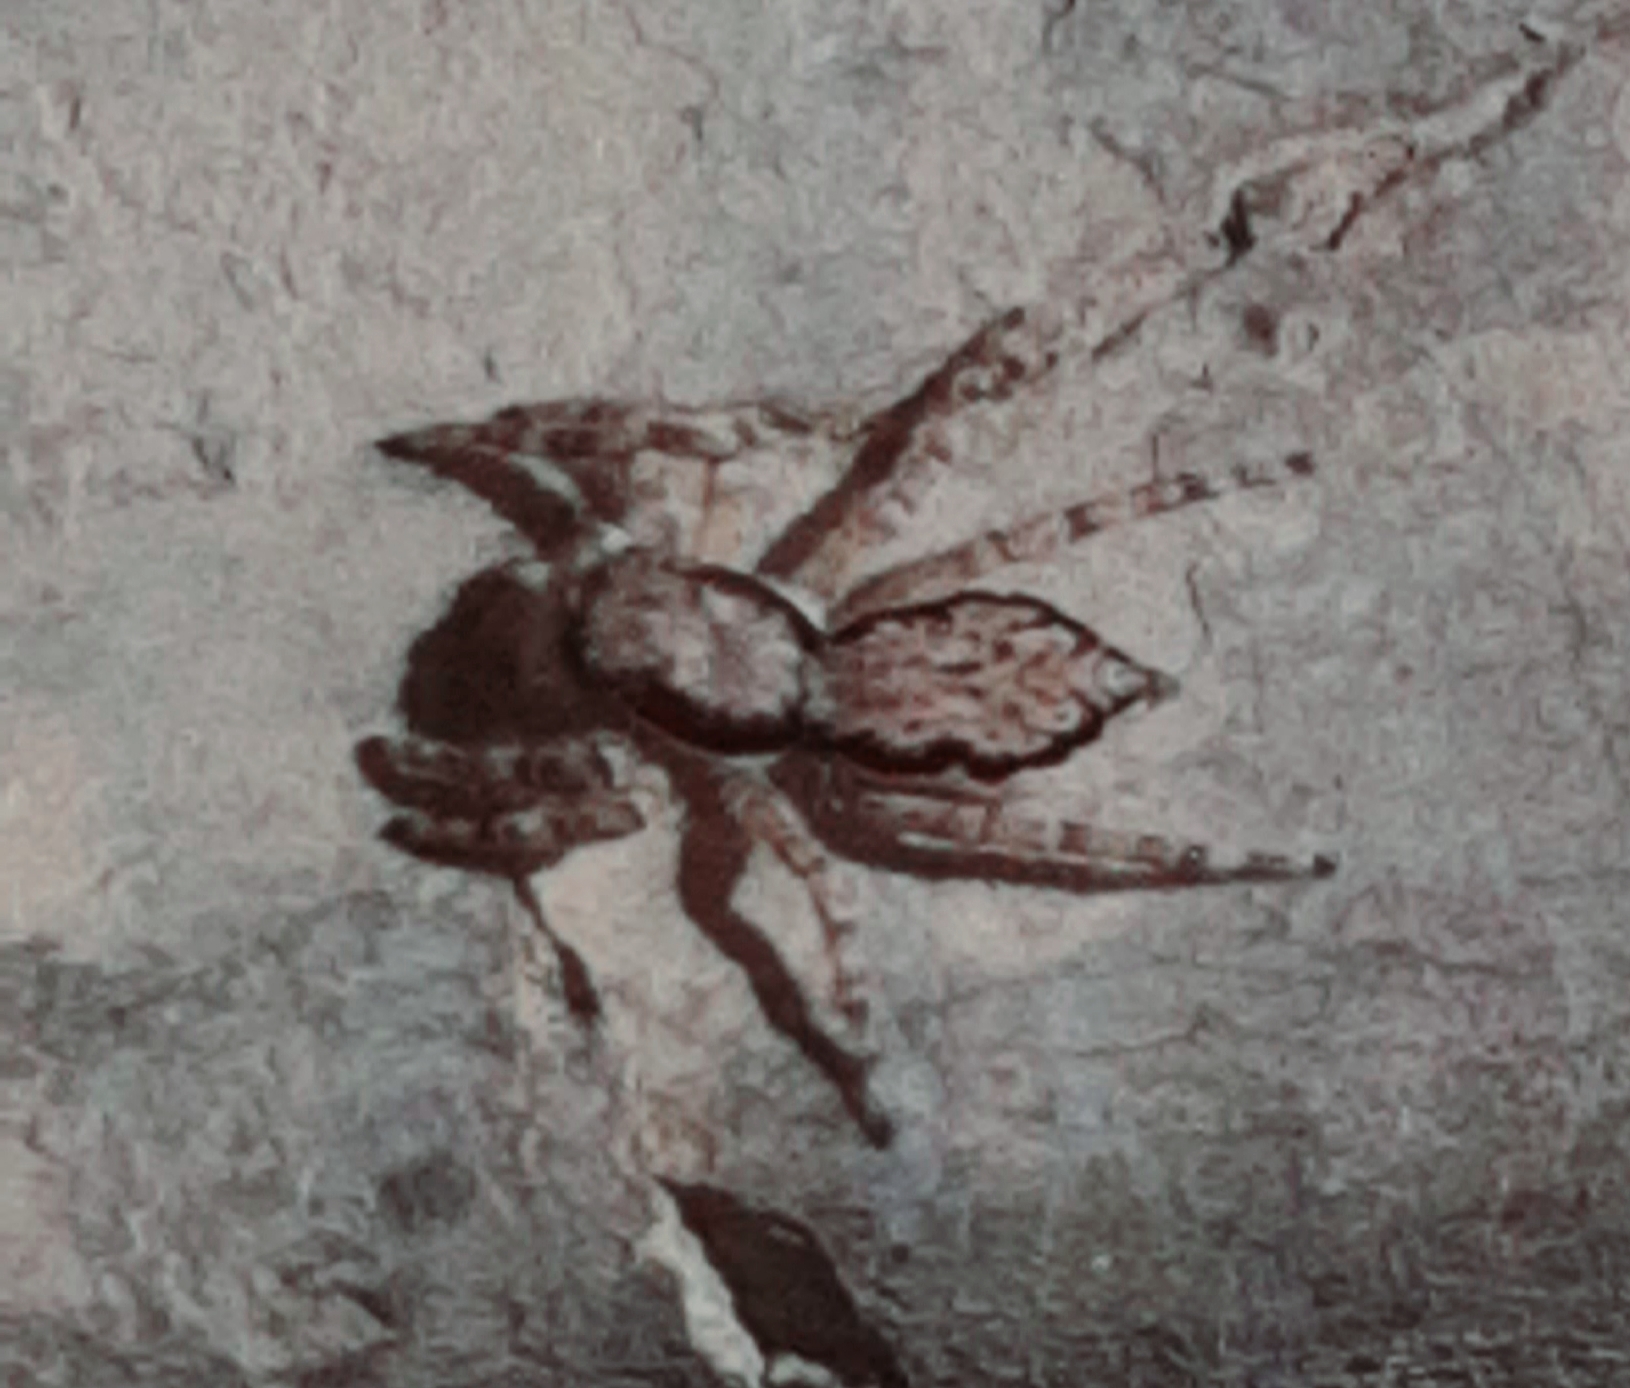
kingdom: Animalia
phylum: Arthropoda
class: Arachnida
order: Araneae
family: Salticidae
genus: Menemerus
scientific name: Menemerus bivittatus
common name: Gray wall jumper
